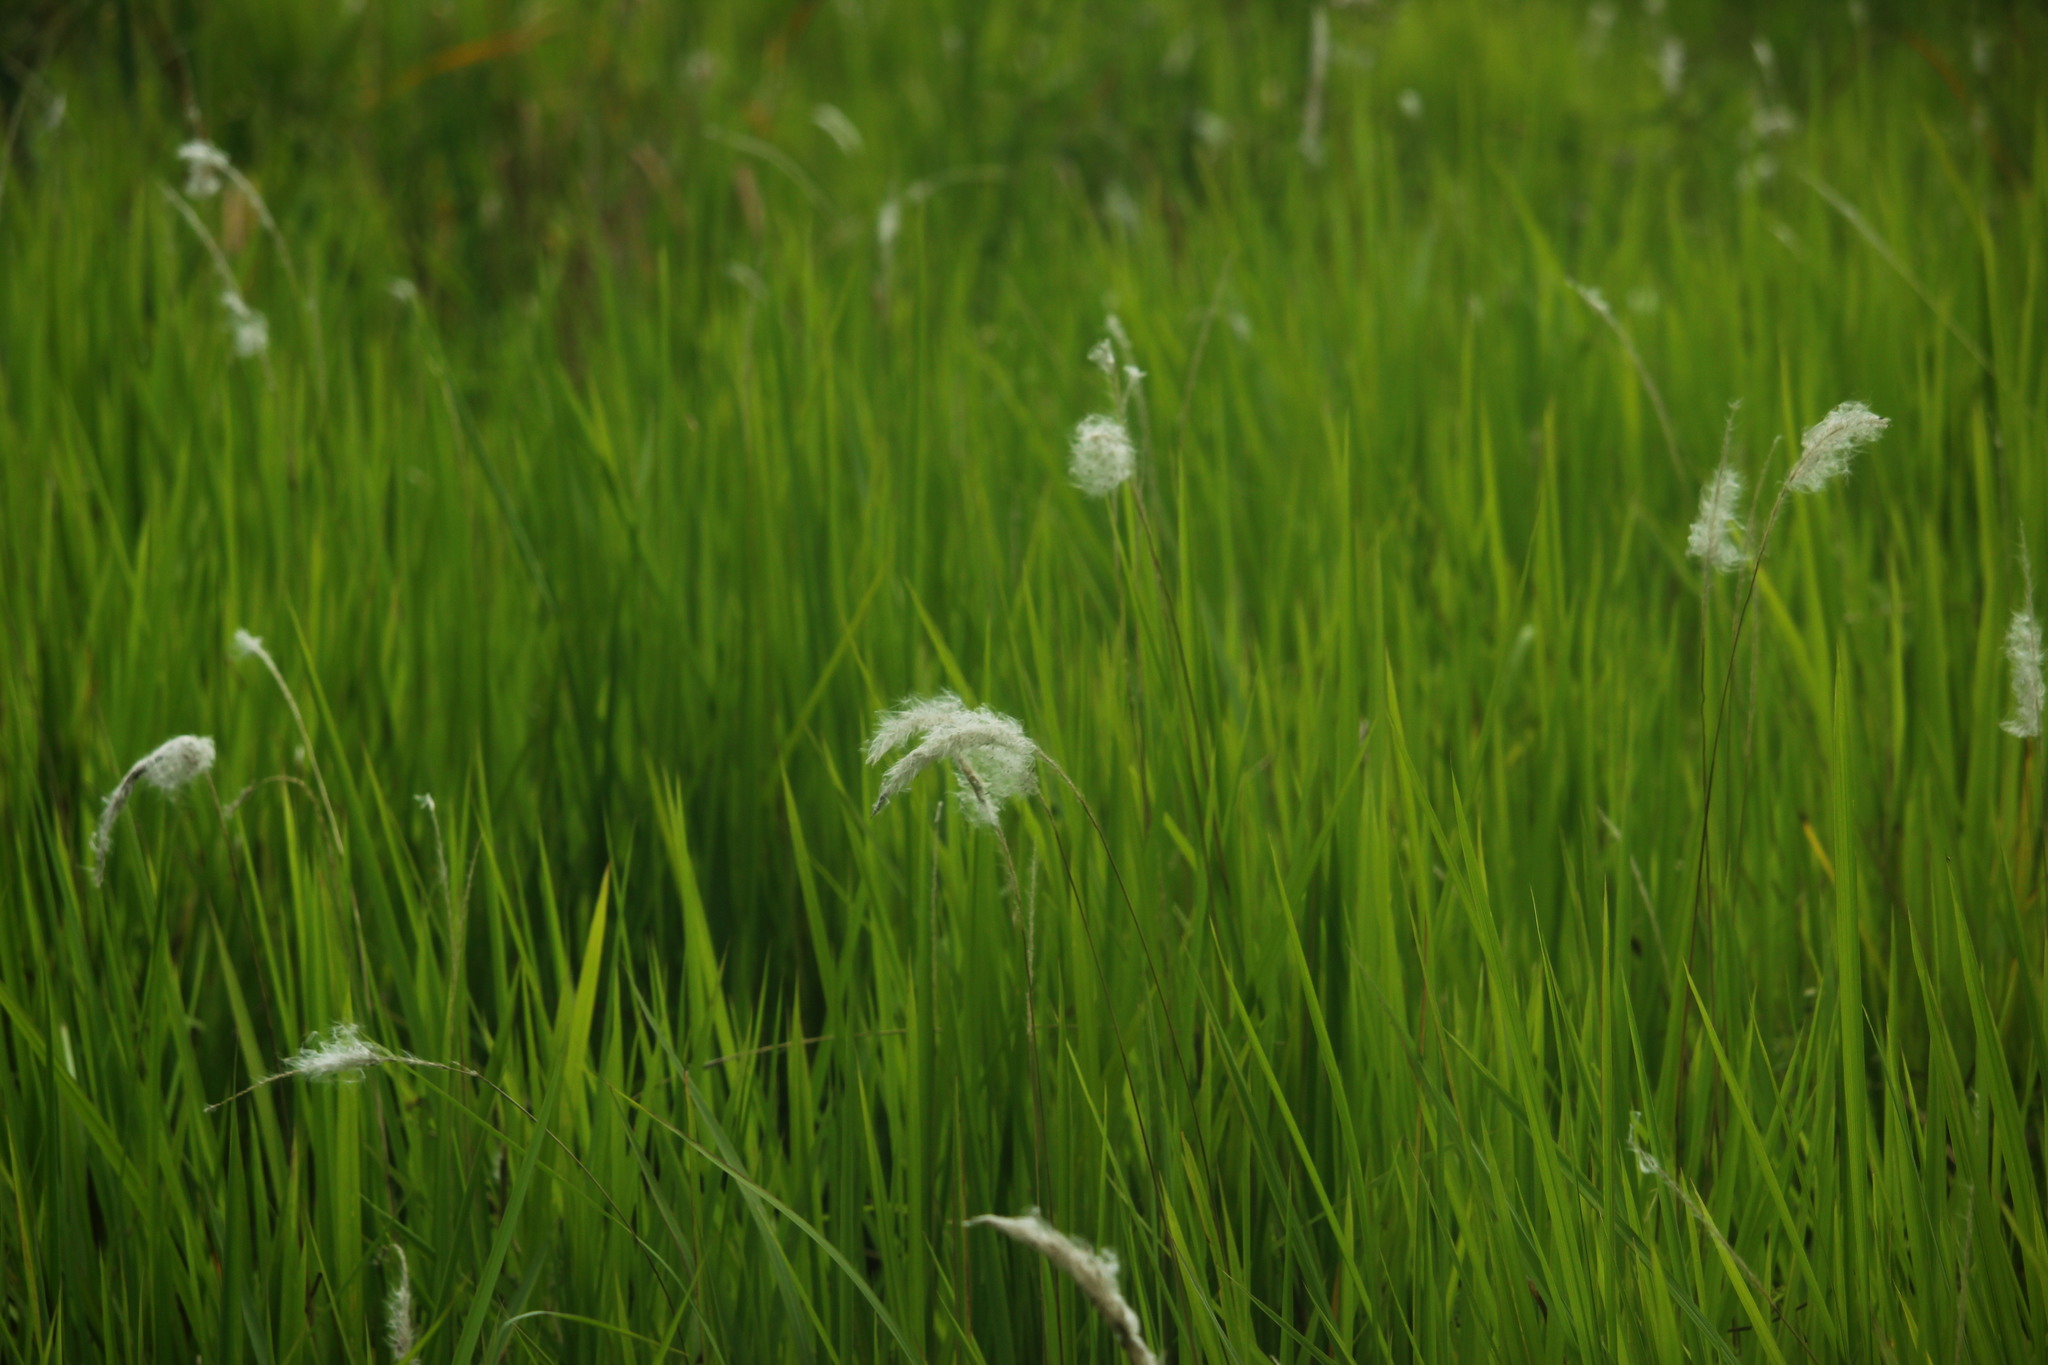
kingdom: Plantae
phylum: Tracheophyta
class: Liliopsida
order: Poales
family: Poaceae
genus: Imperata
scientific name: Imperata cylindrica
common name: Cogongrass
